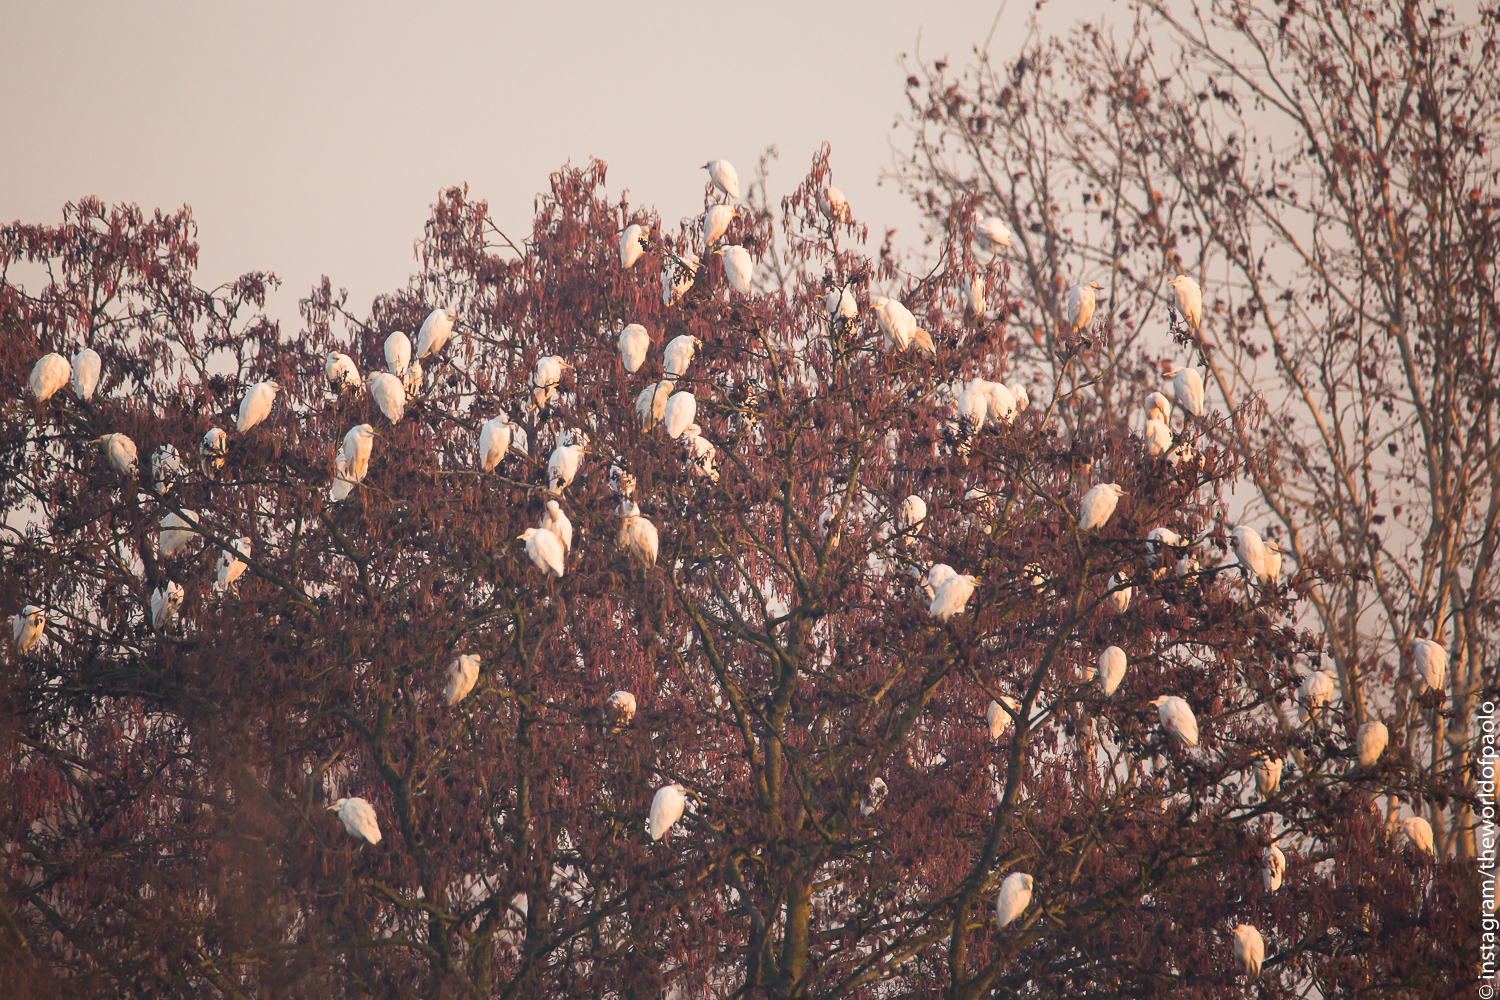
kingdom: Animalia
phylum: Chordata
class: Aves
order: Pelecaniformes
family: Ardeidae
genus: Bubulcus
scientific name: Bubulcus ibis
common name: Cattle egret
